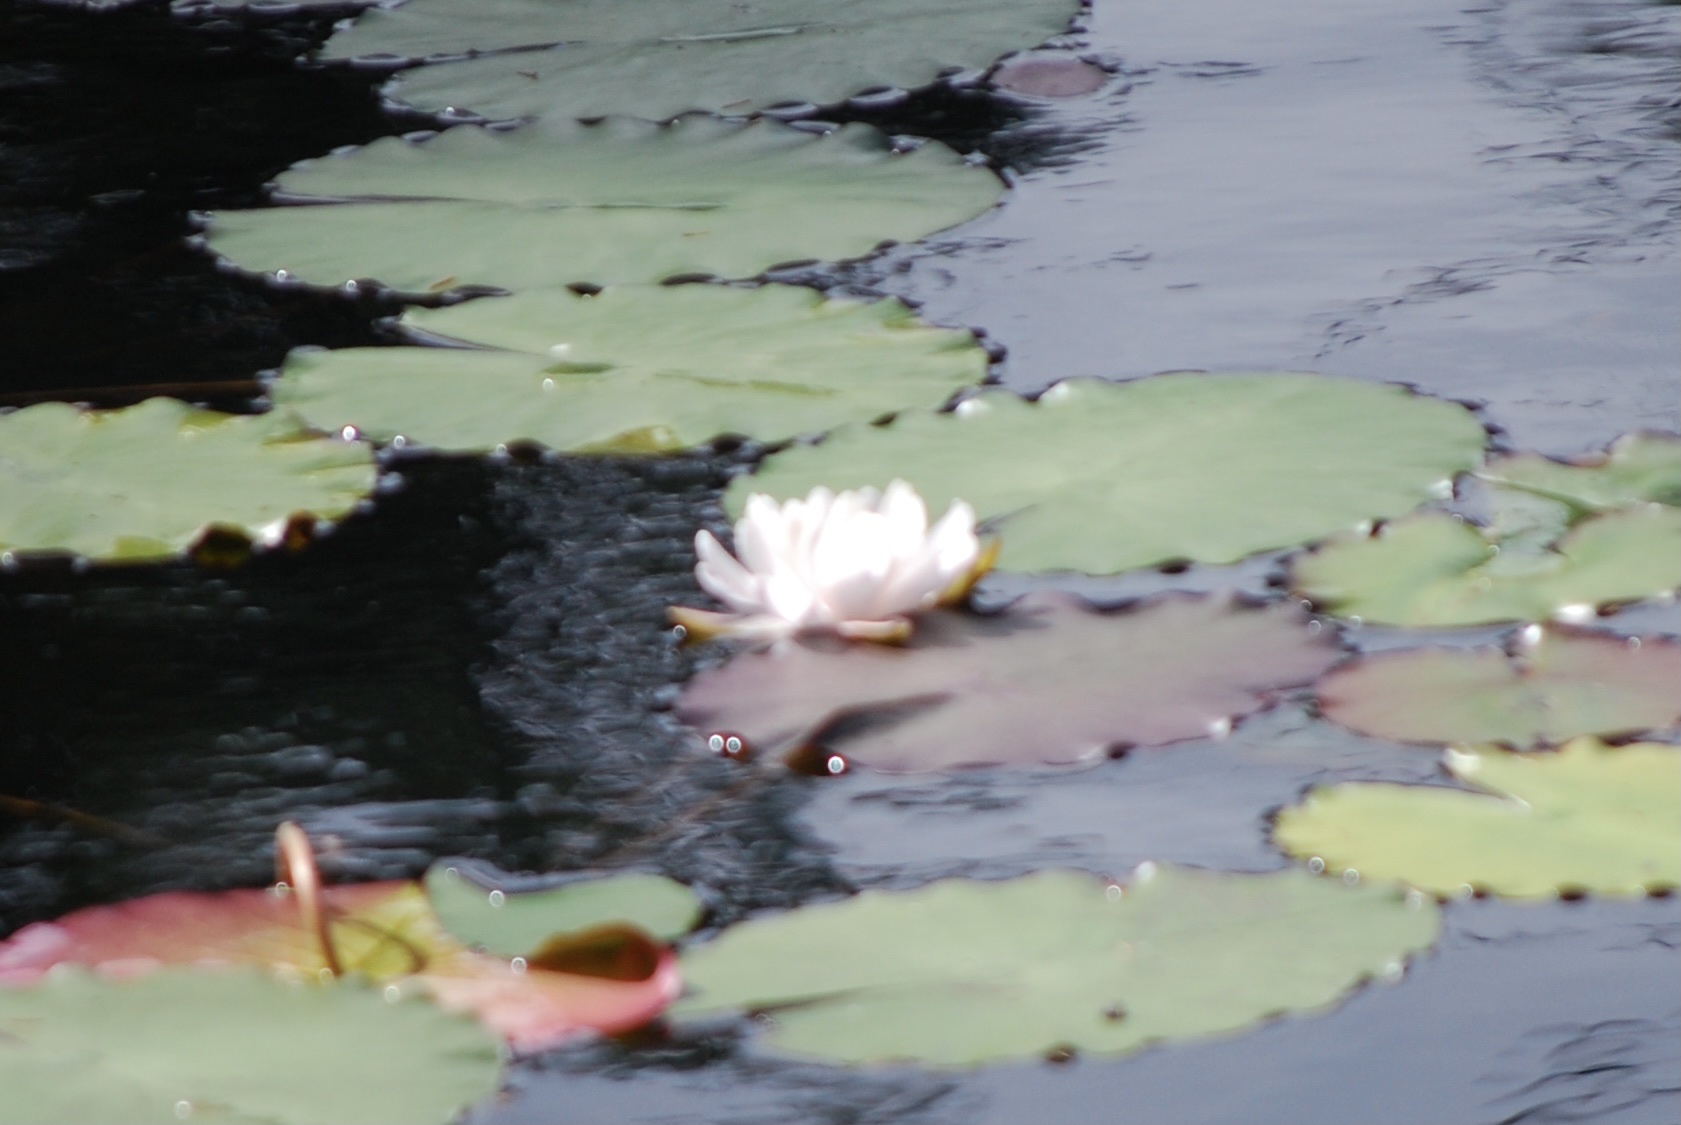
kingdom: Plantae
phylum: Tracheophyta
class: Magnoliopsida
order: Nymphaeales
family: Nymphaeaceae
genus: Nymphaea
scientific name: Nymphaea odorata
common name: Fragrant water-lily
